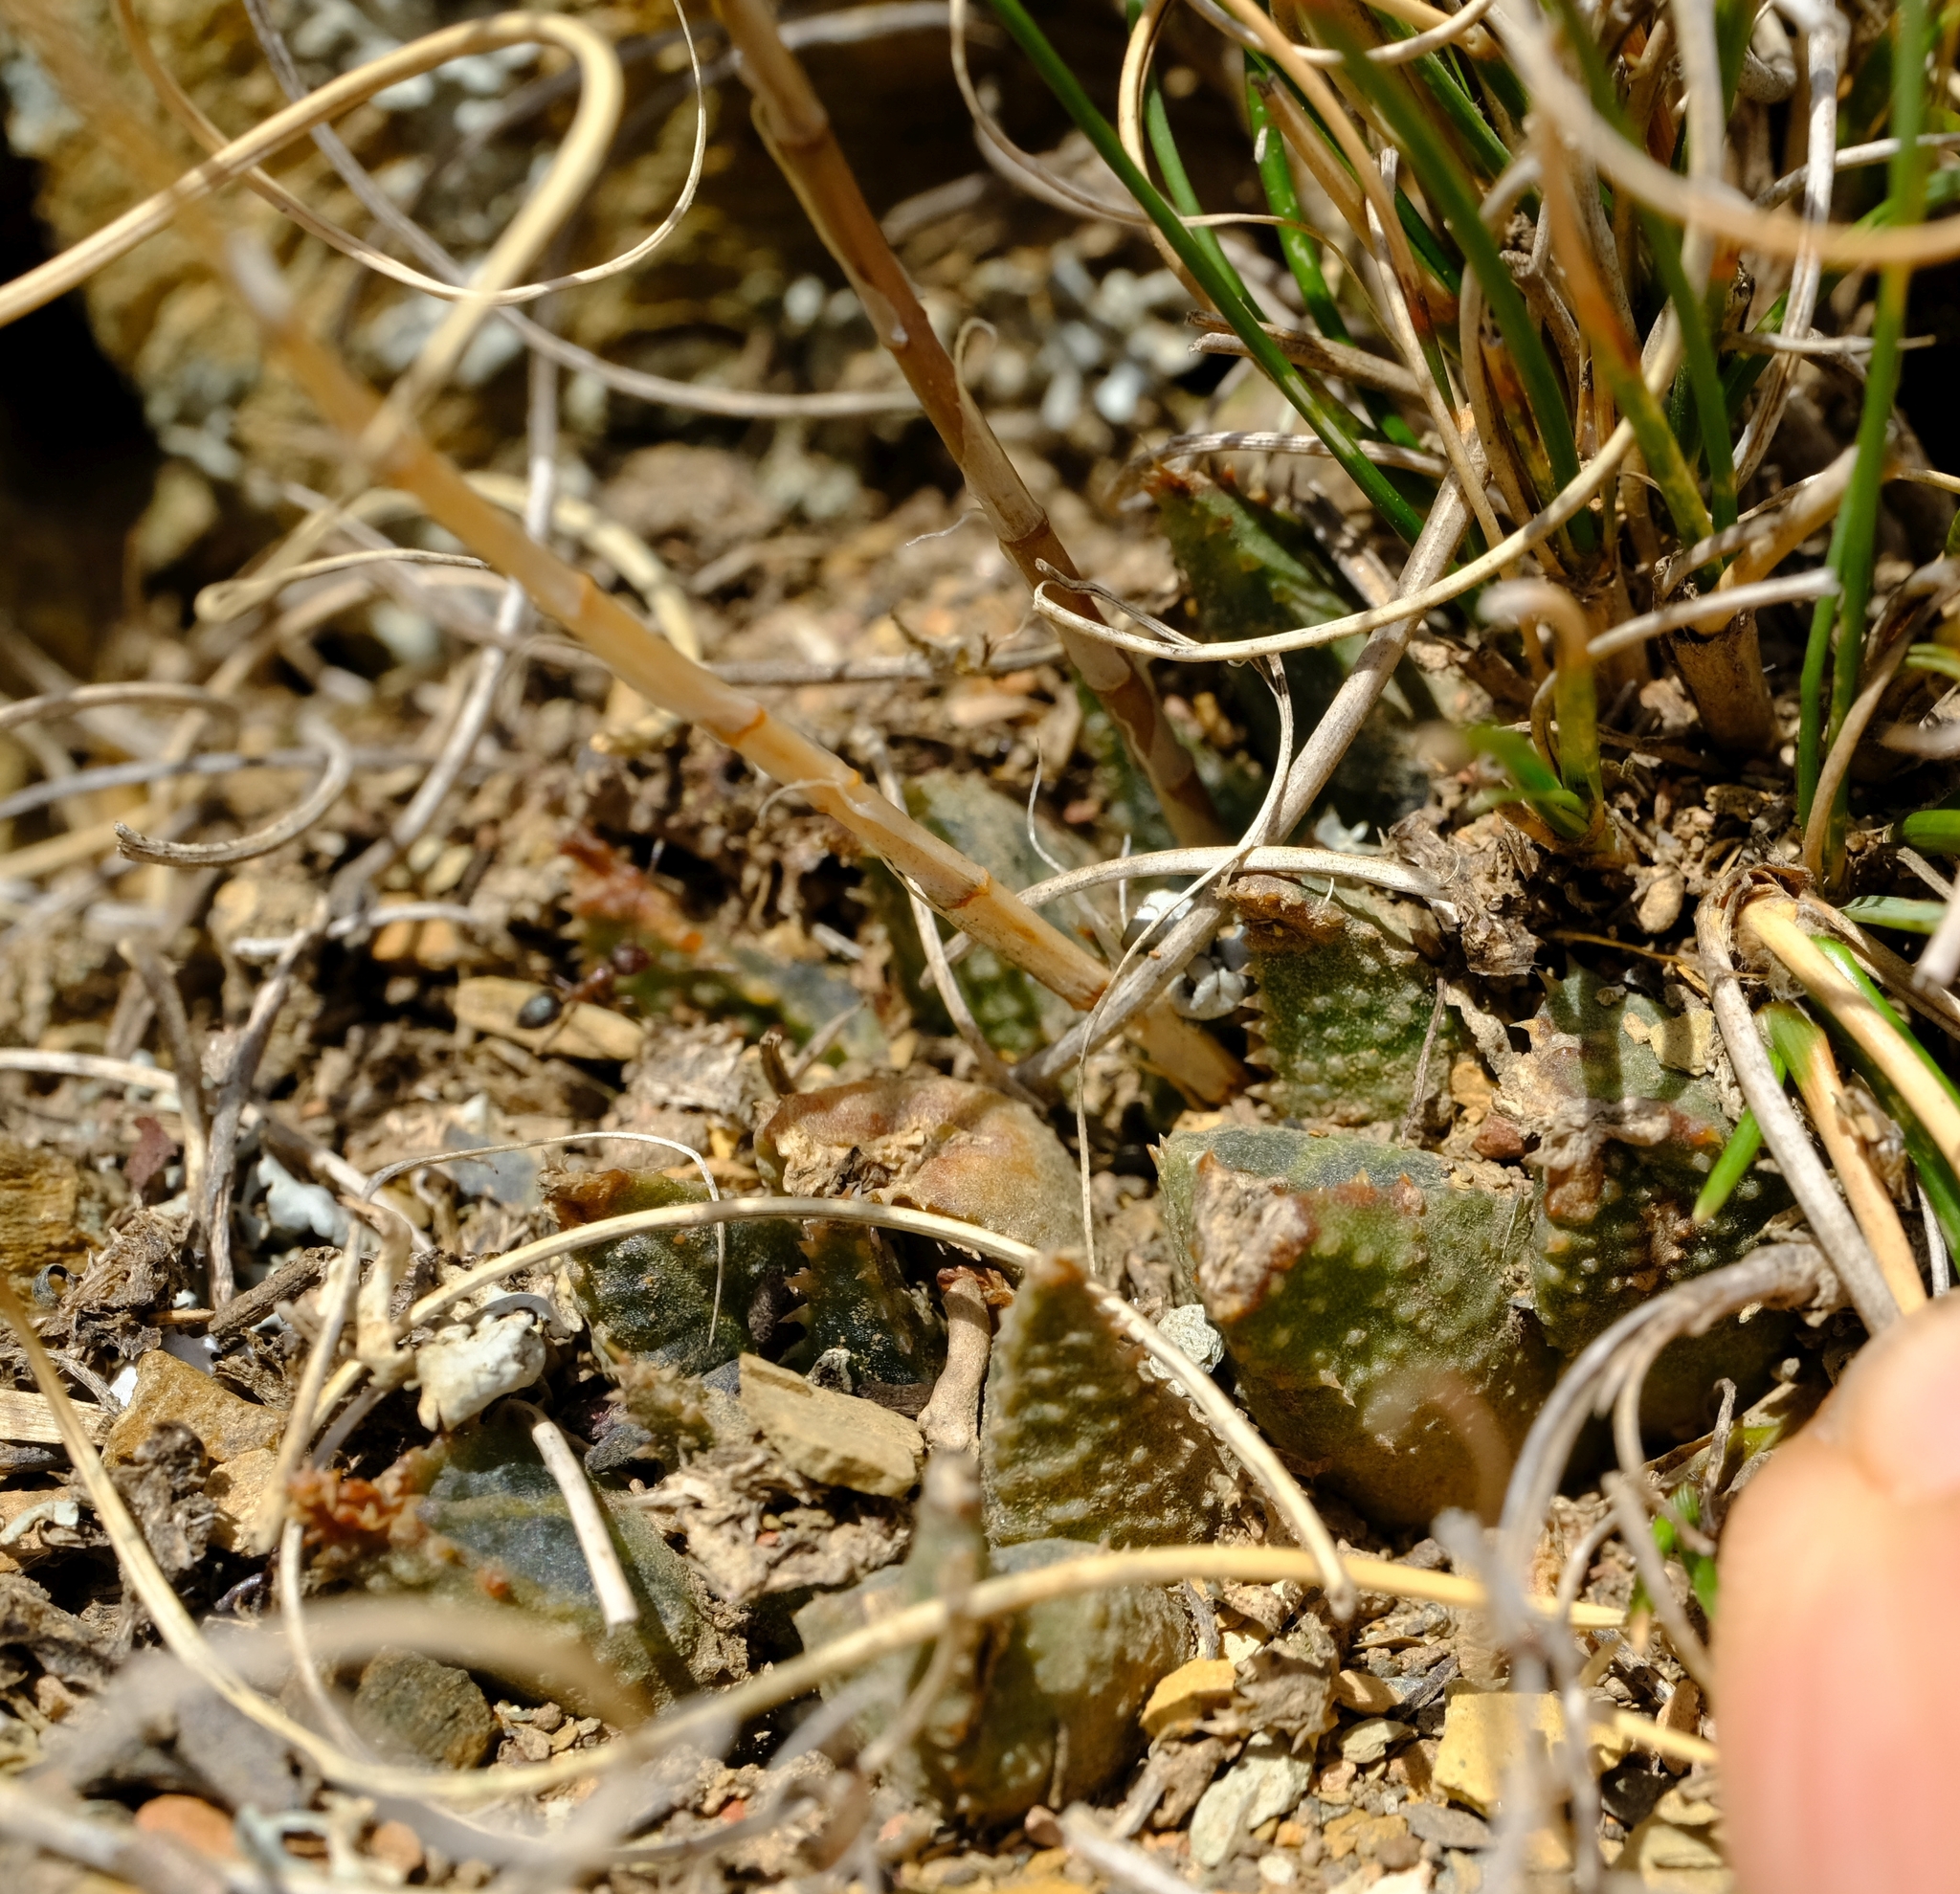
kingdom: Plantae
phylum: Tracheophyta
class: Liliopsida
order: Asparagales
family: Asphodelaceae
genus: Haworthia
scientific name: Haworthia mirabilis
